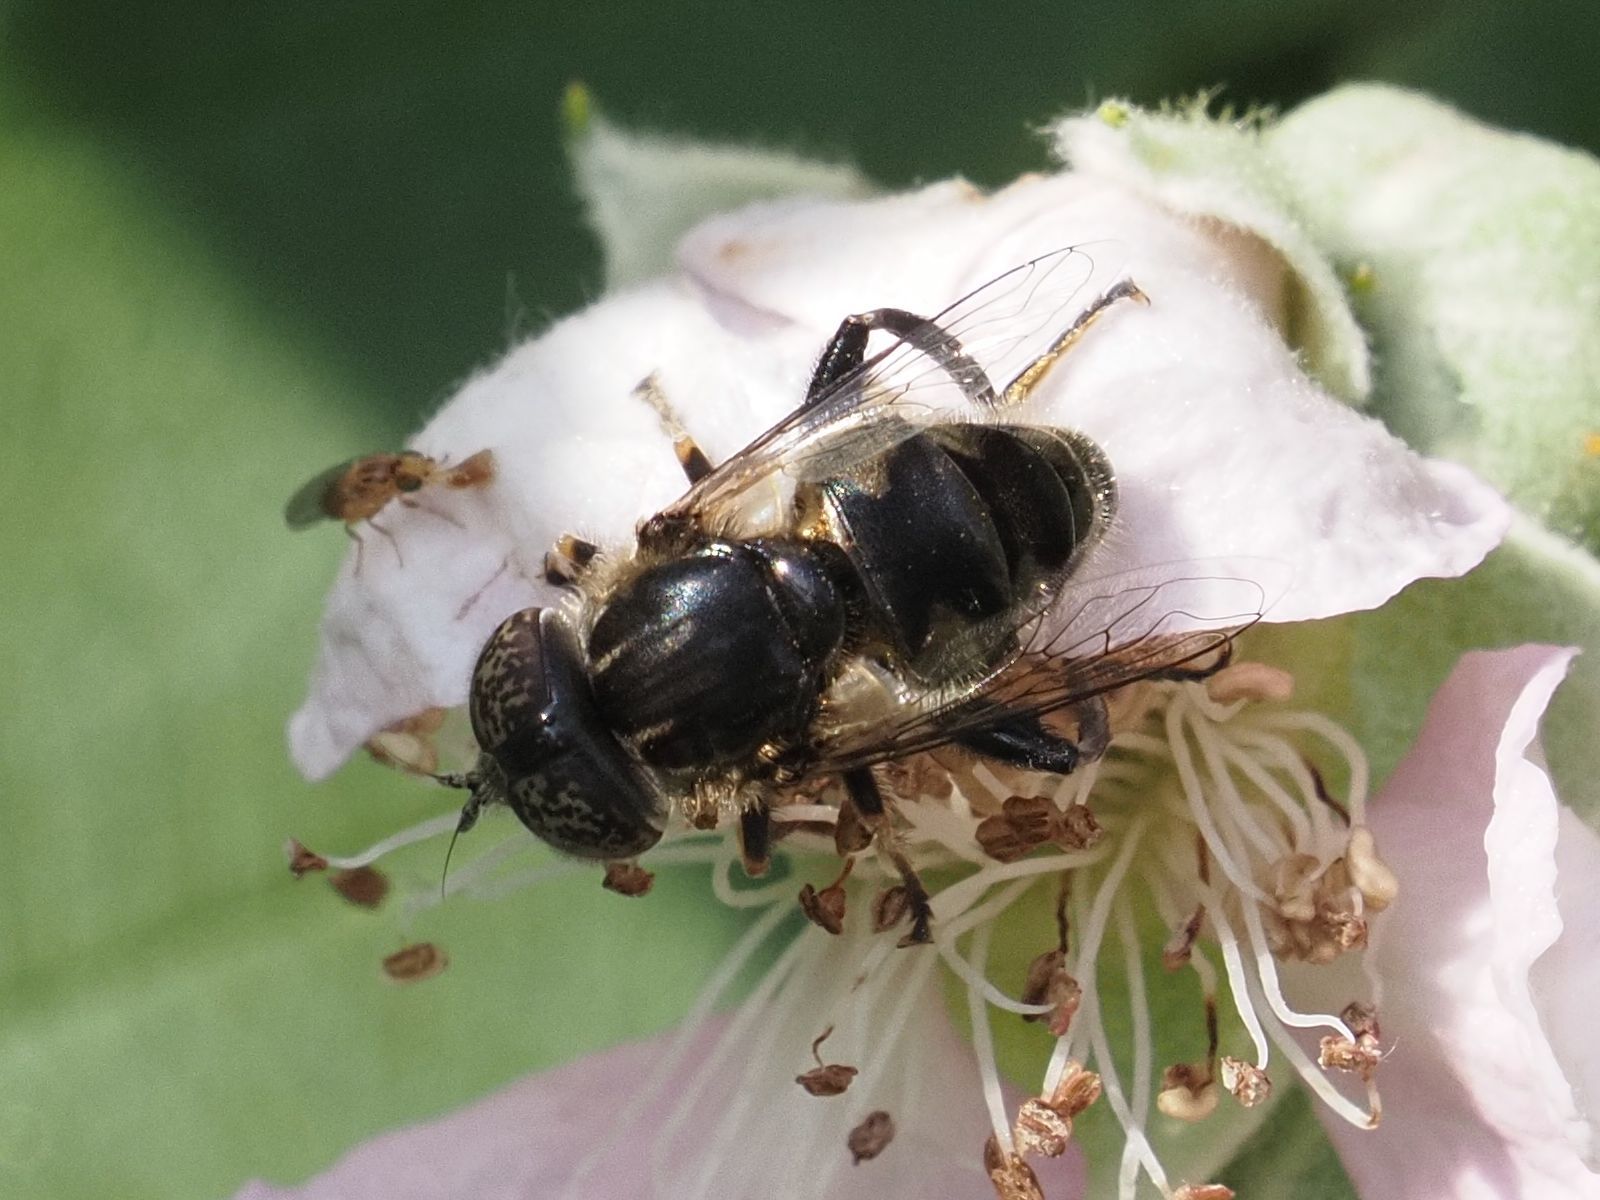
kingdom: Animalia
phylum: Arthropoda
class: Insecta
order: Diptera
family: Syrphidae
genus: Eristalinus
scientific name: Eristalinus sepulchralis
